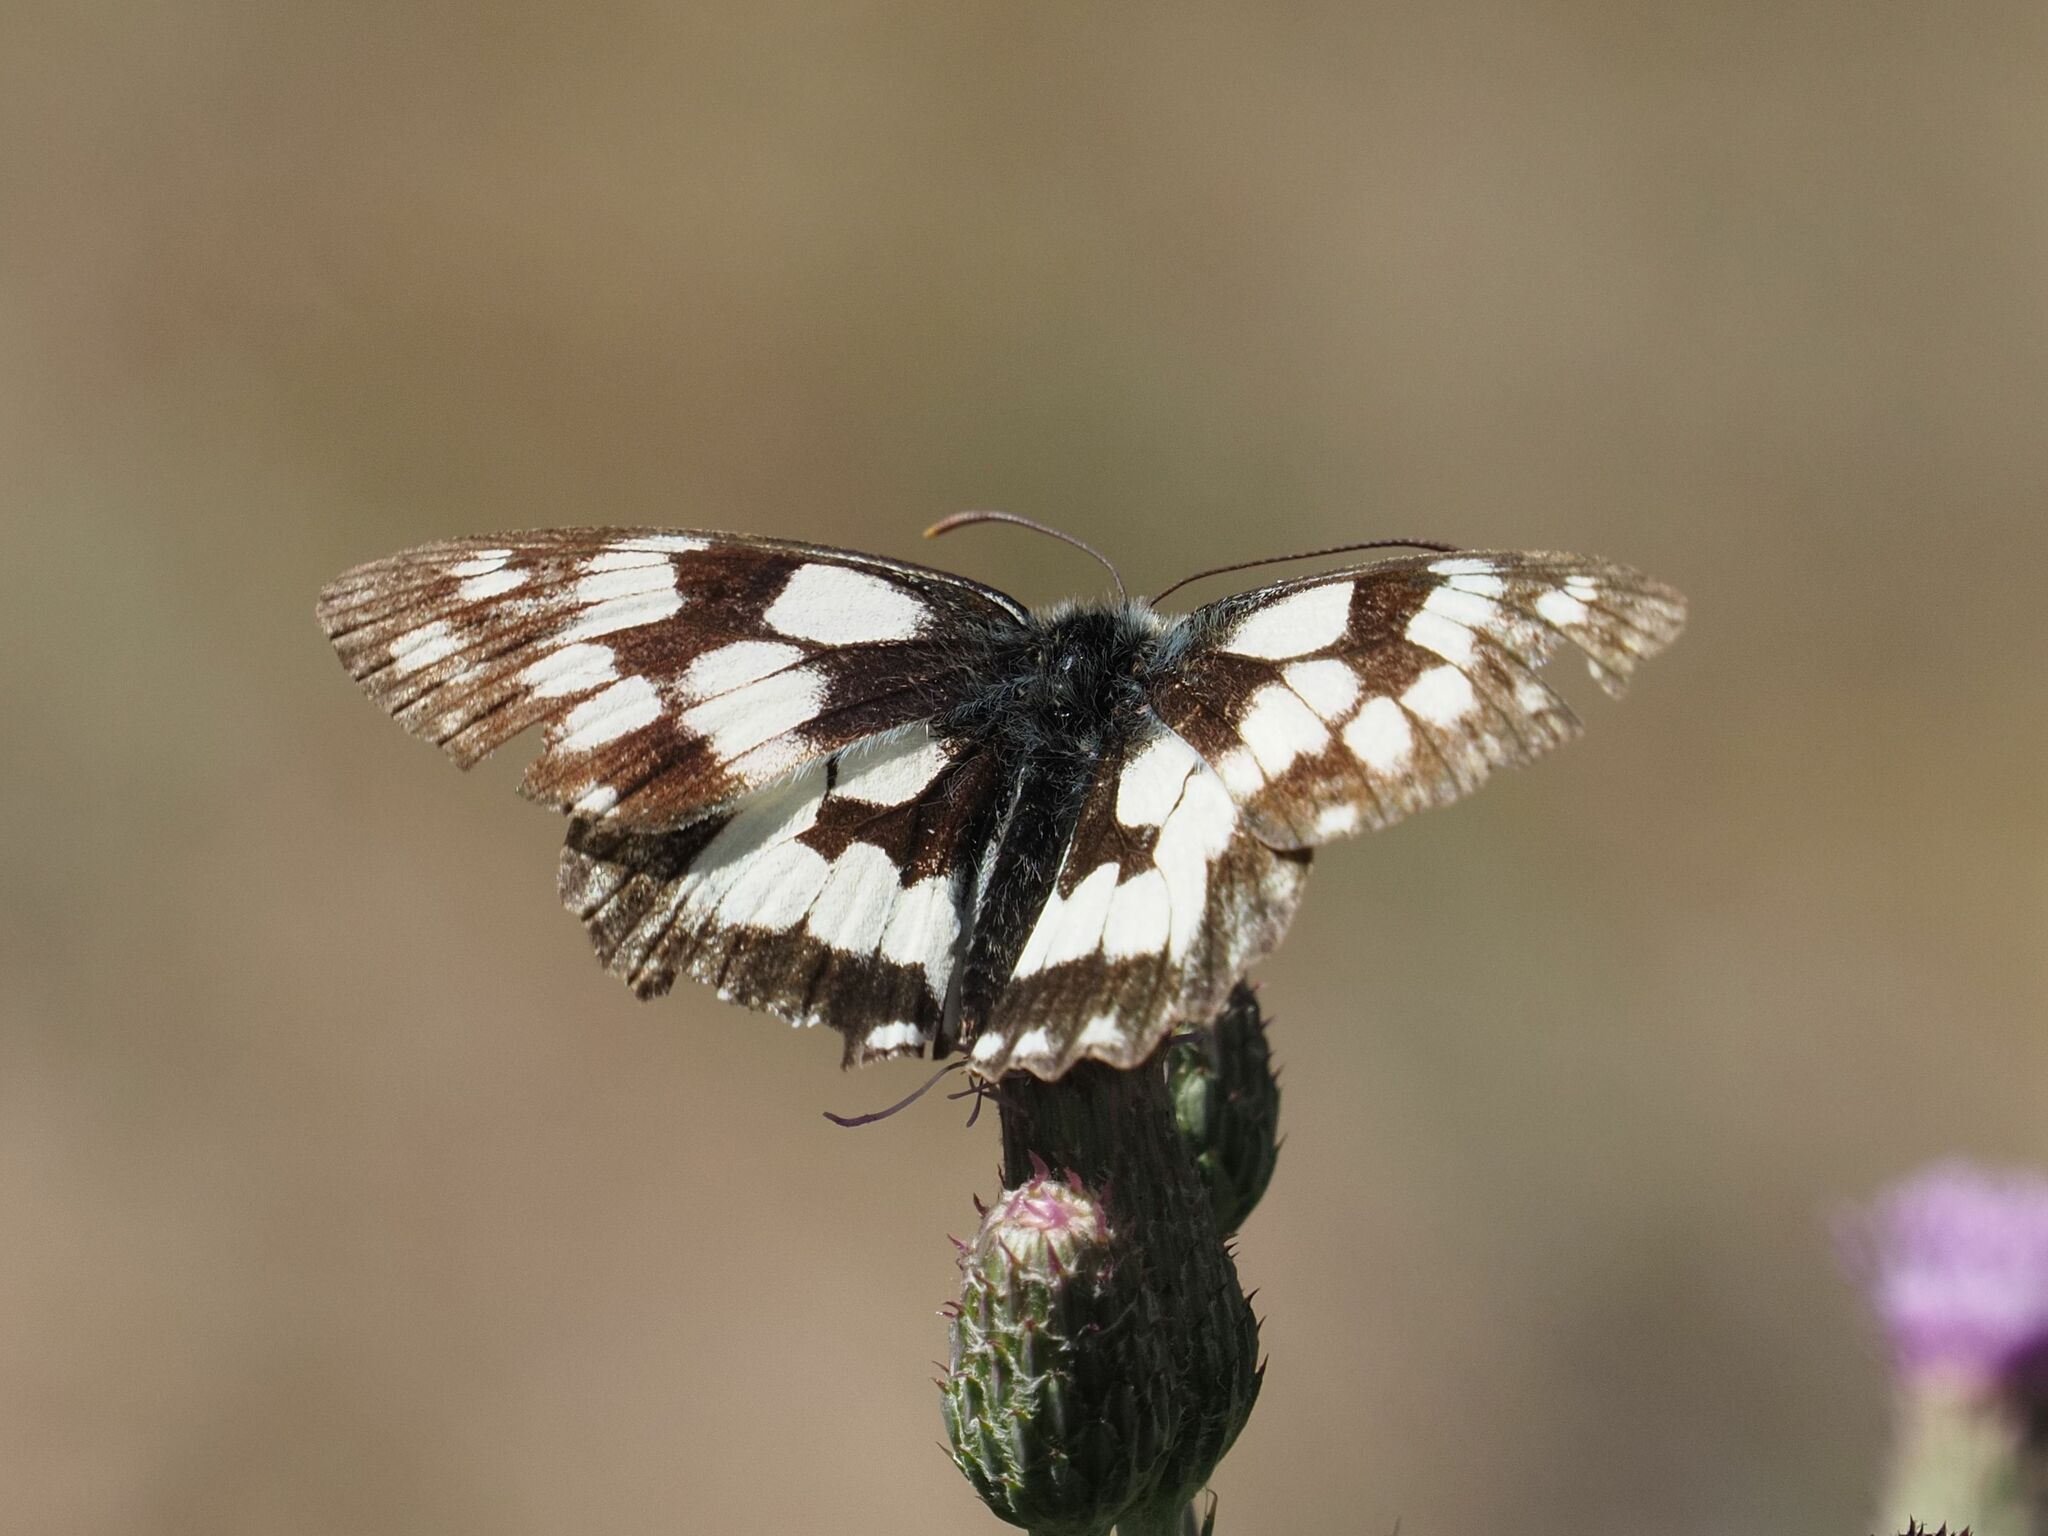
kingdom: Animalia
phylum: Arthropoda
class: Insecta
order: Lepidoptera
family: Nymphalidae
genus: Melanargia
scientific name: Melanargia galathea
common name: Marbled white
